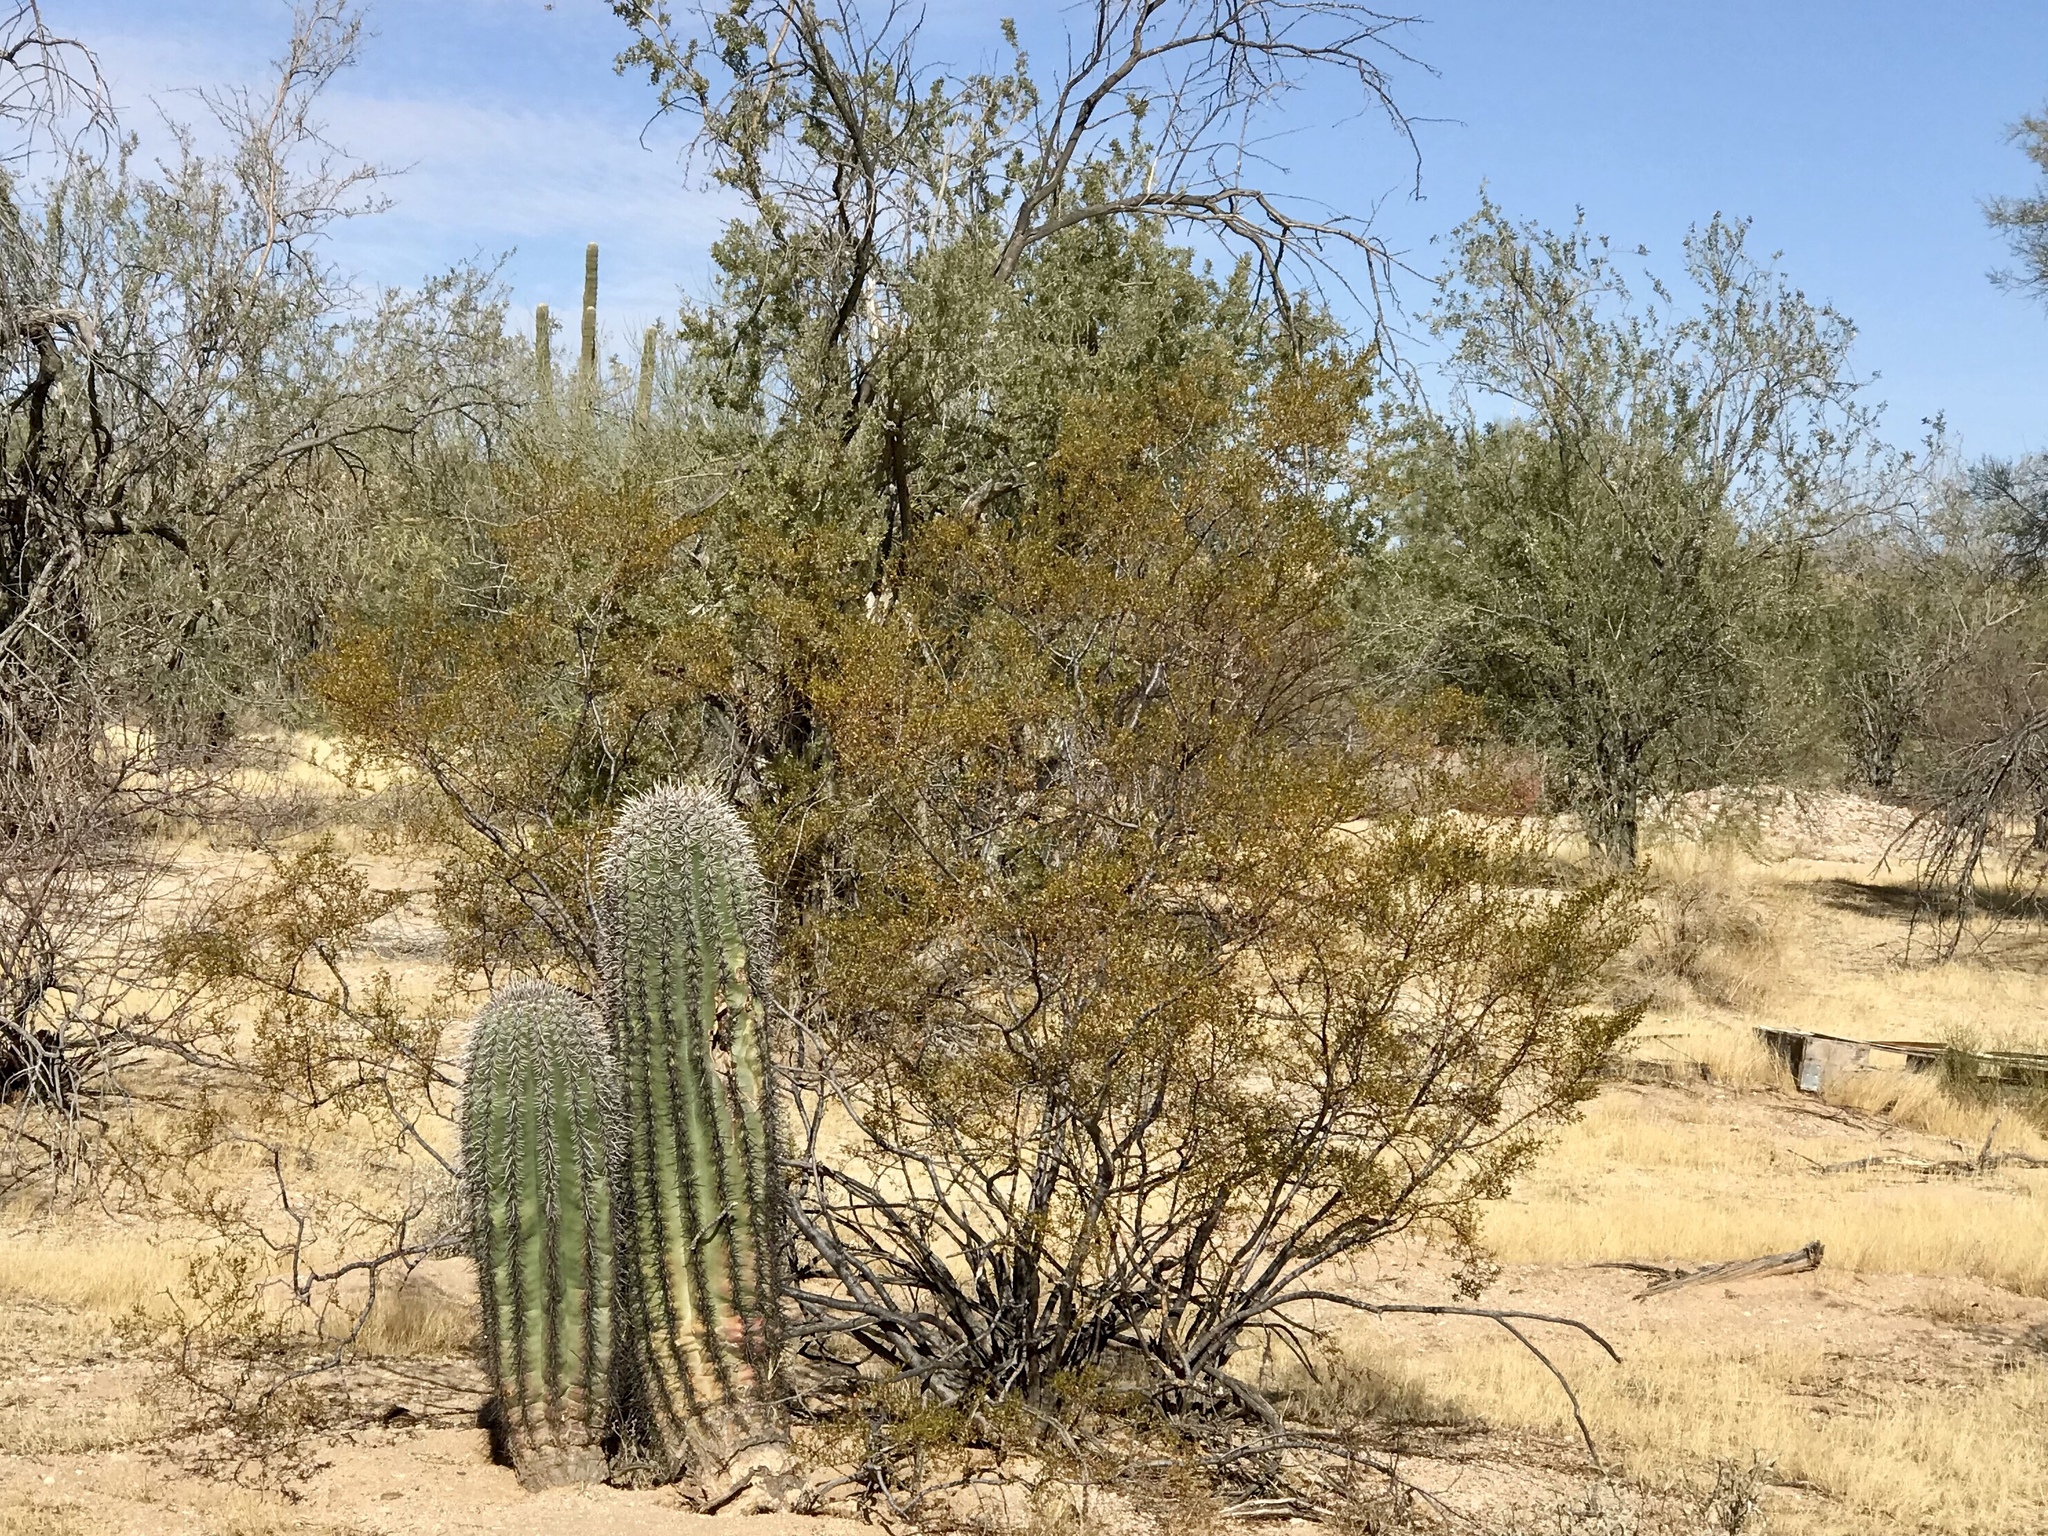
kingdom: Plantae
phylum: Tracheophyta
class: Magnoliopsida
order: Zygophyllales
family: Zygophyllaceae
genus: Larrea
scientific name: Larrea tridentata
